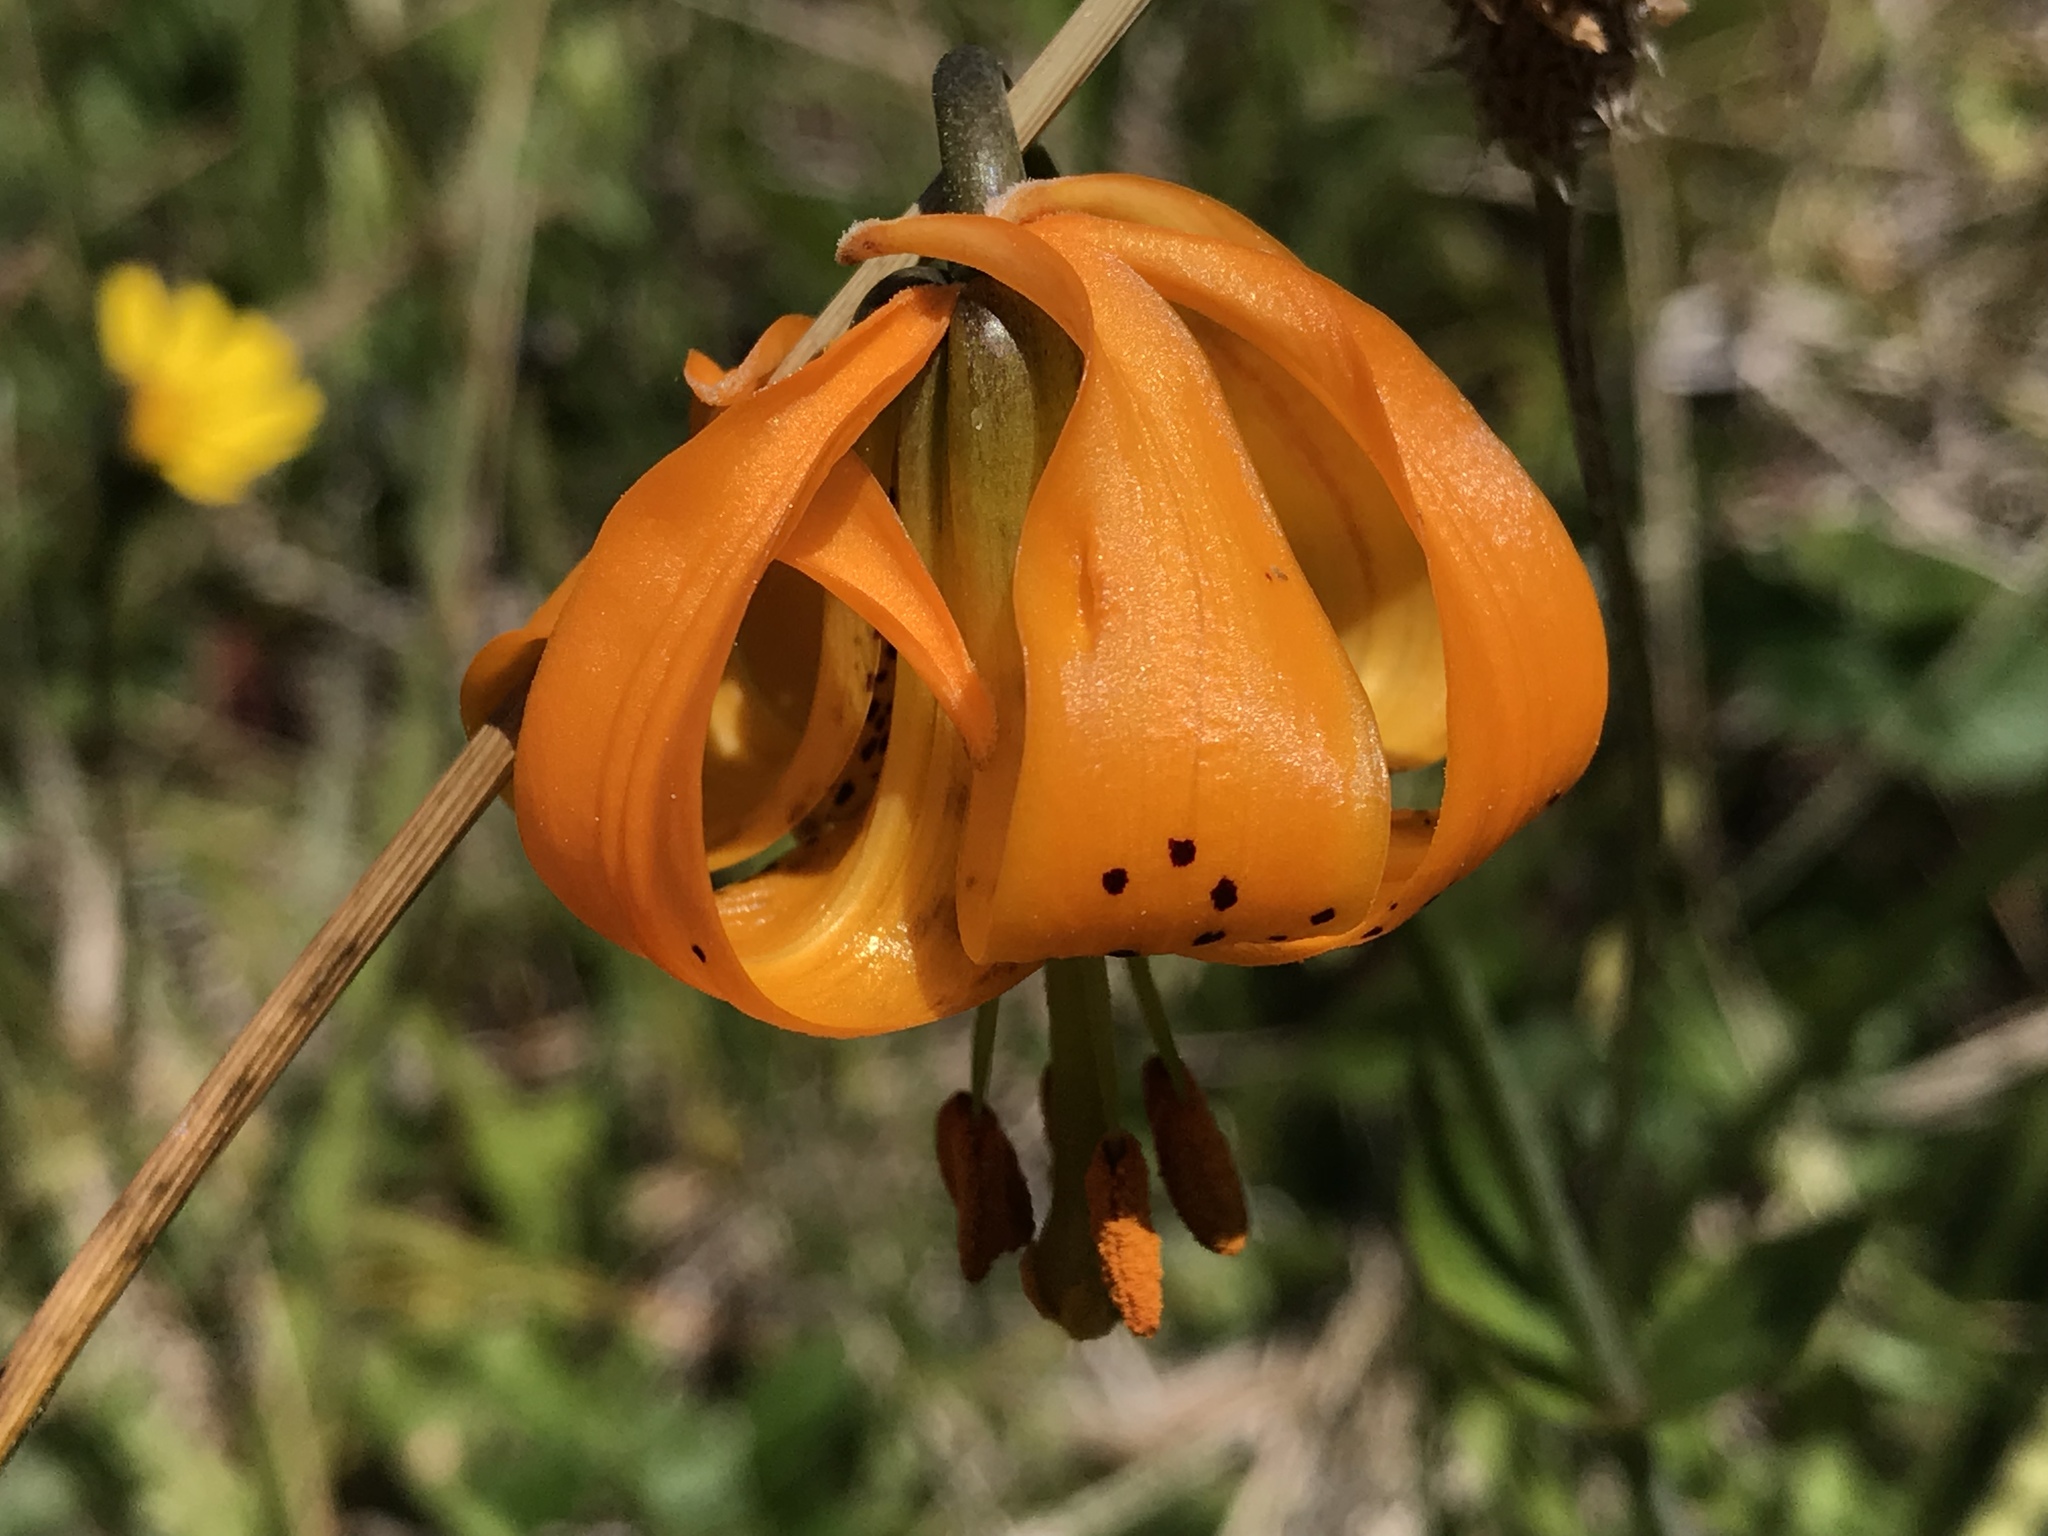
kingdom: Plantae
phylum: Tracheophyta
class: Liliopsida
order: Liliales
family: Liliaceae
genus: Lilium
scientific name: Lilium columbianum
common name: Columbia lily
